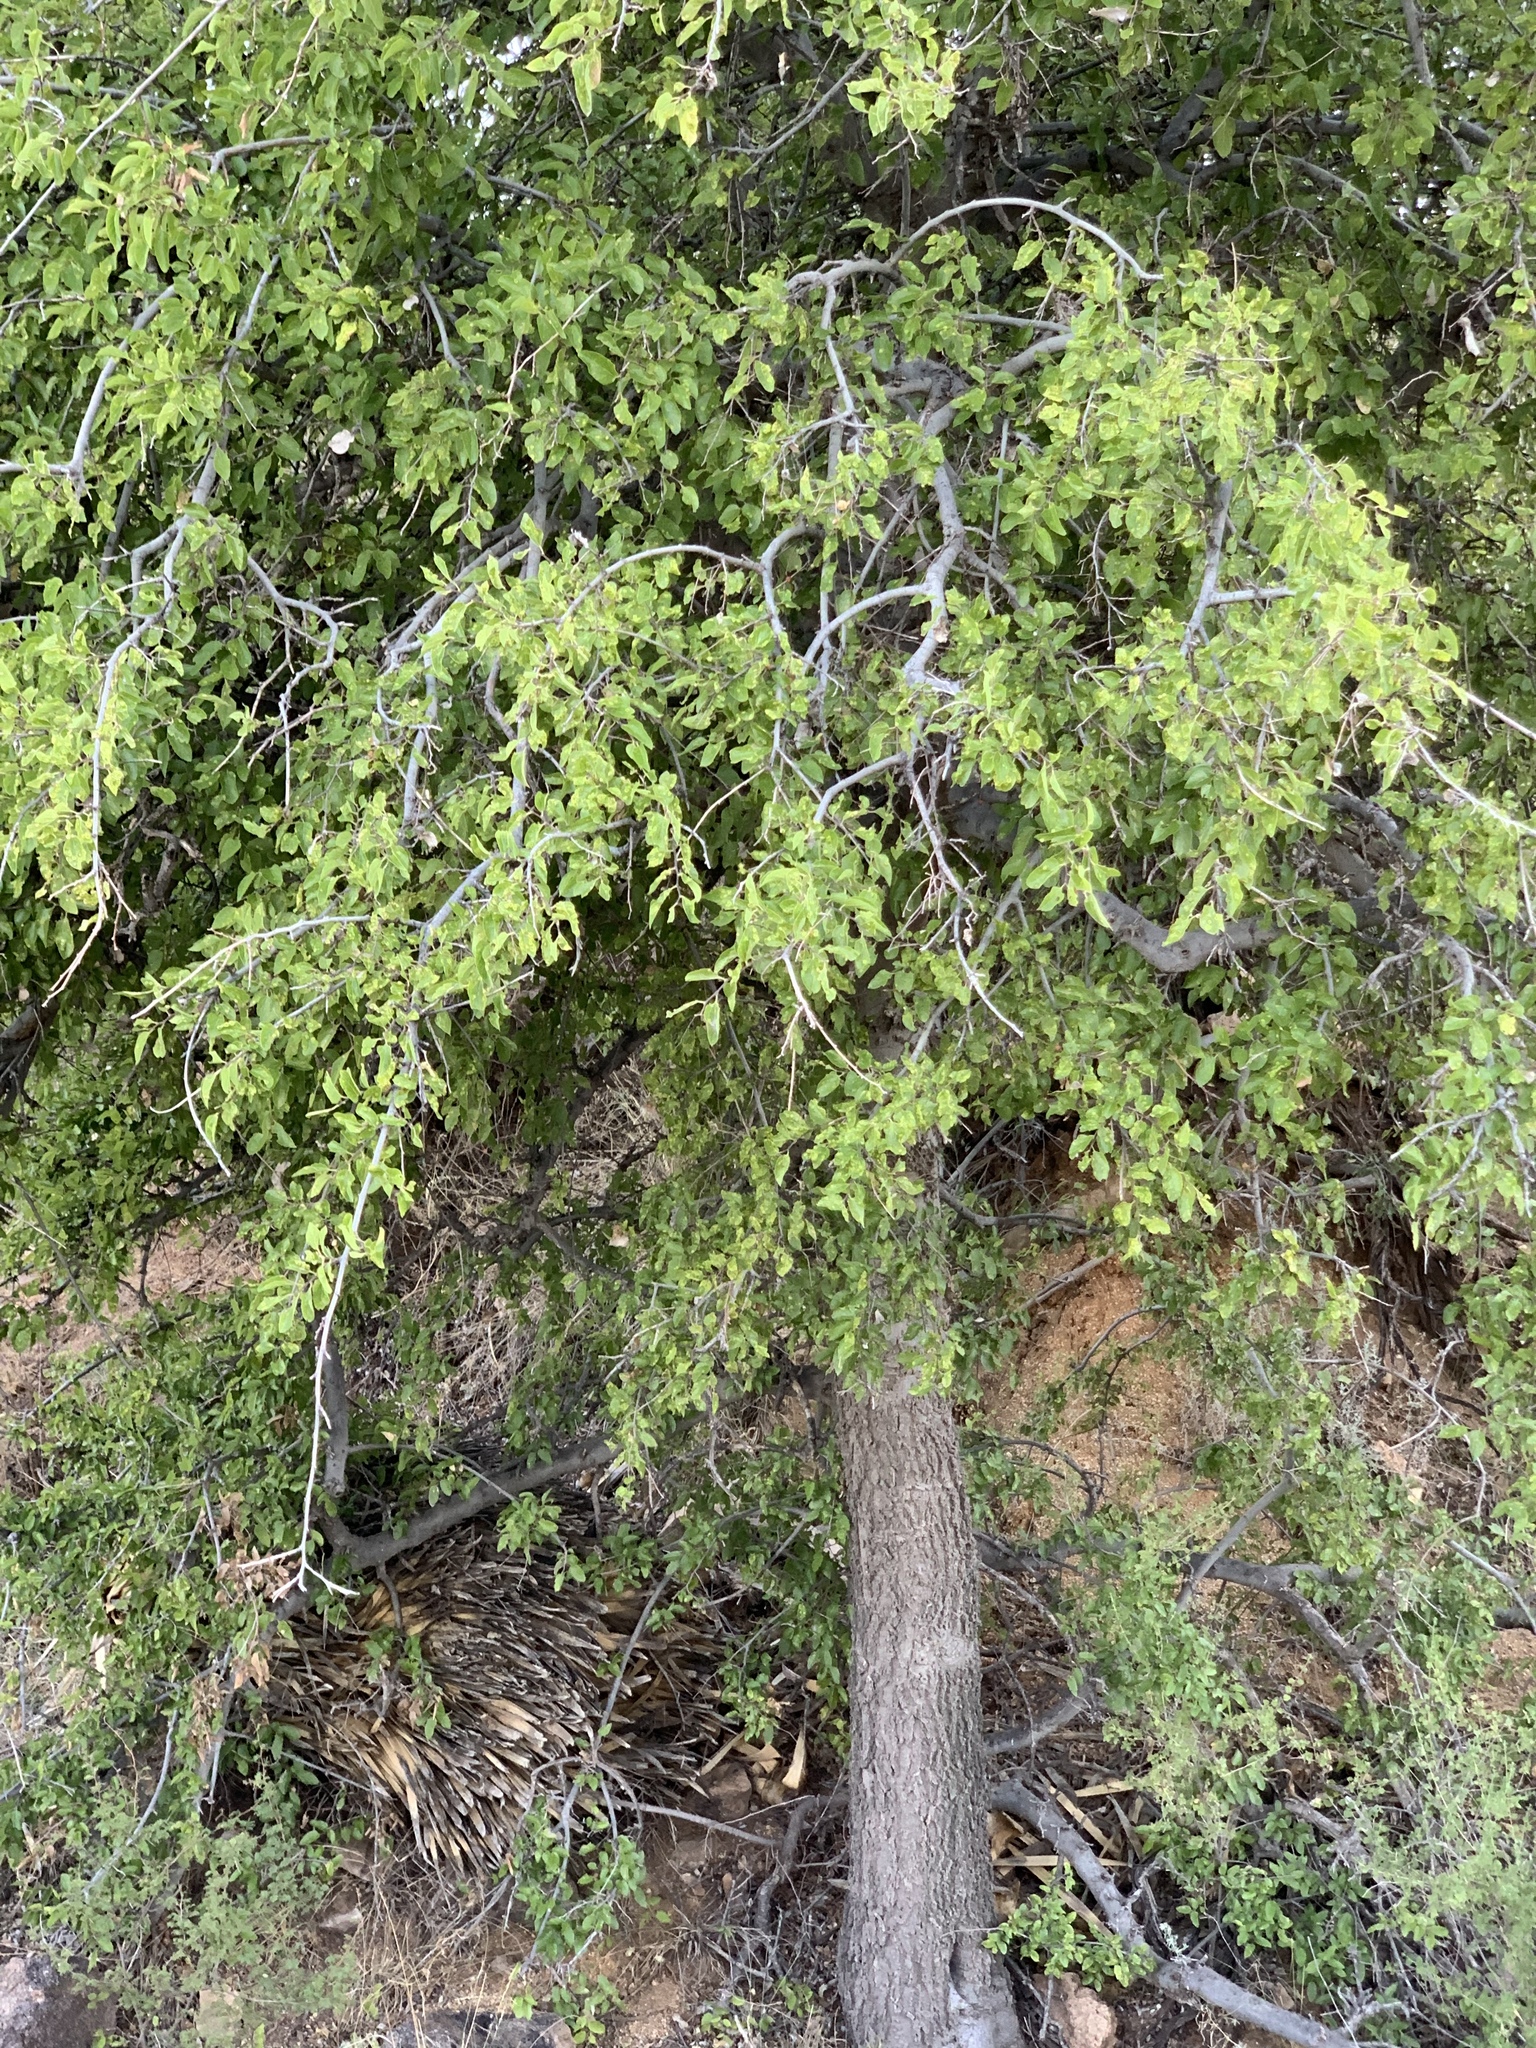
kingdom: Plantae
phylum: Tracheophyta
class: Magnoliopsida
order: Rosales
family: Cannabaceae
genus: Celtis
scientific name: Celtis reticulata
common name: Netleaf hackberry
